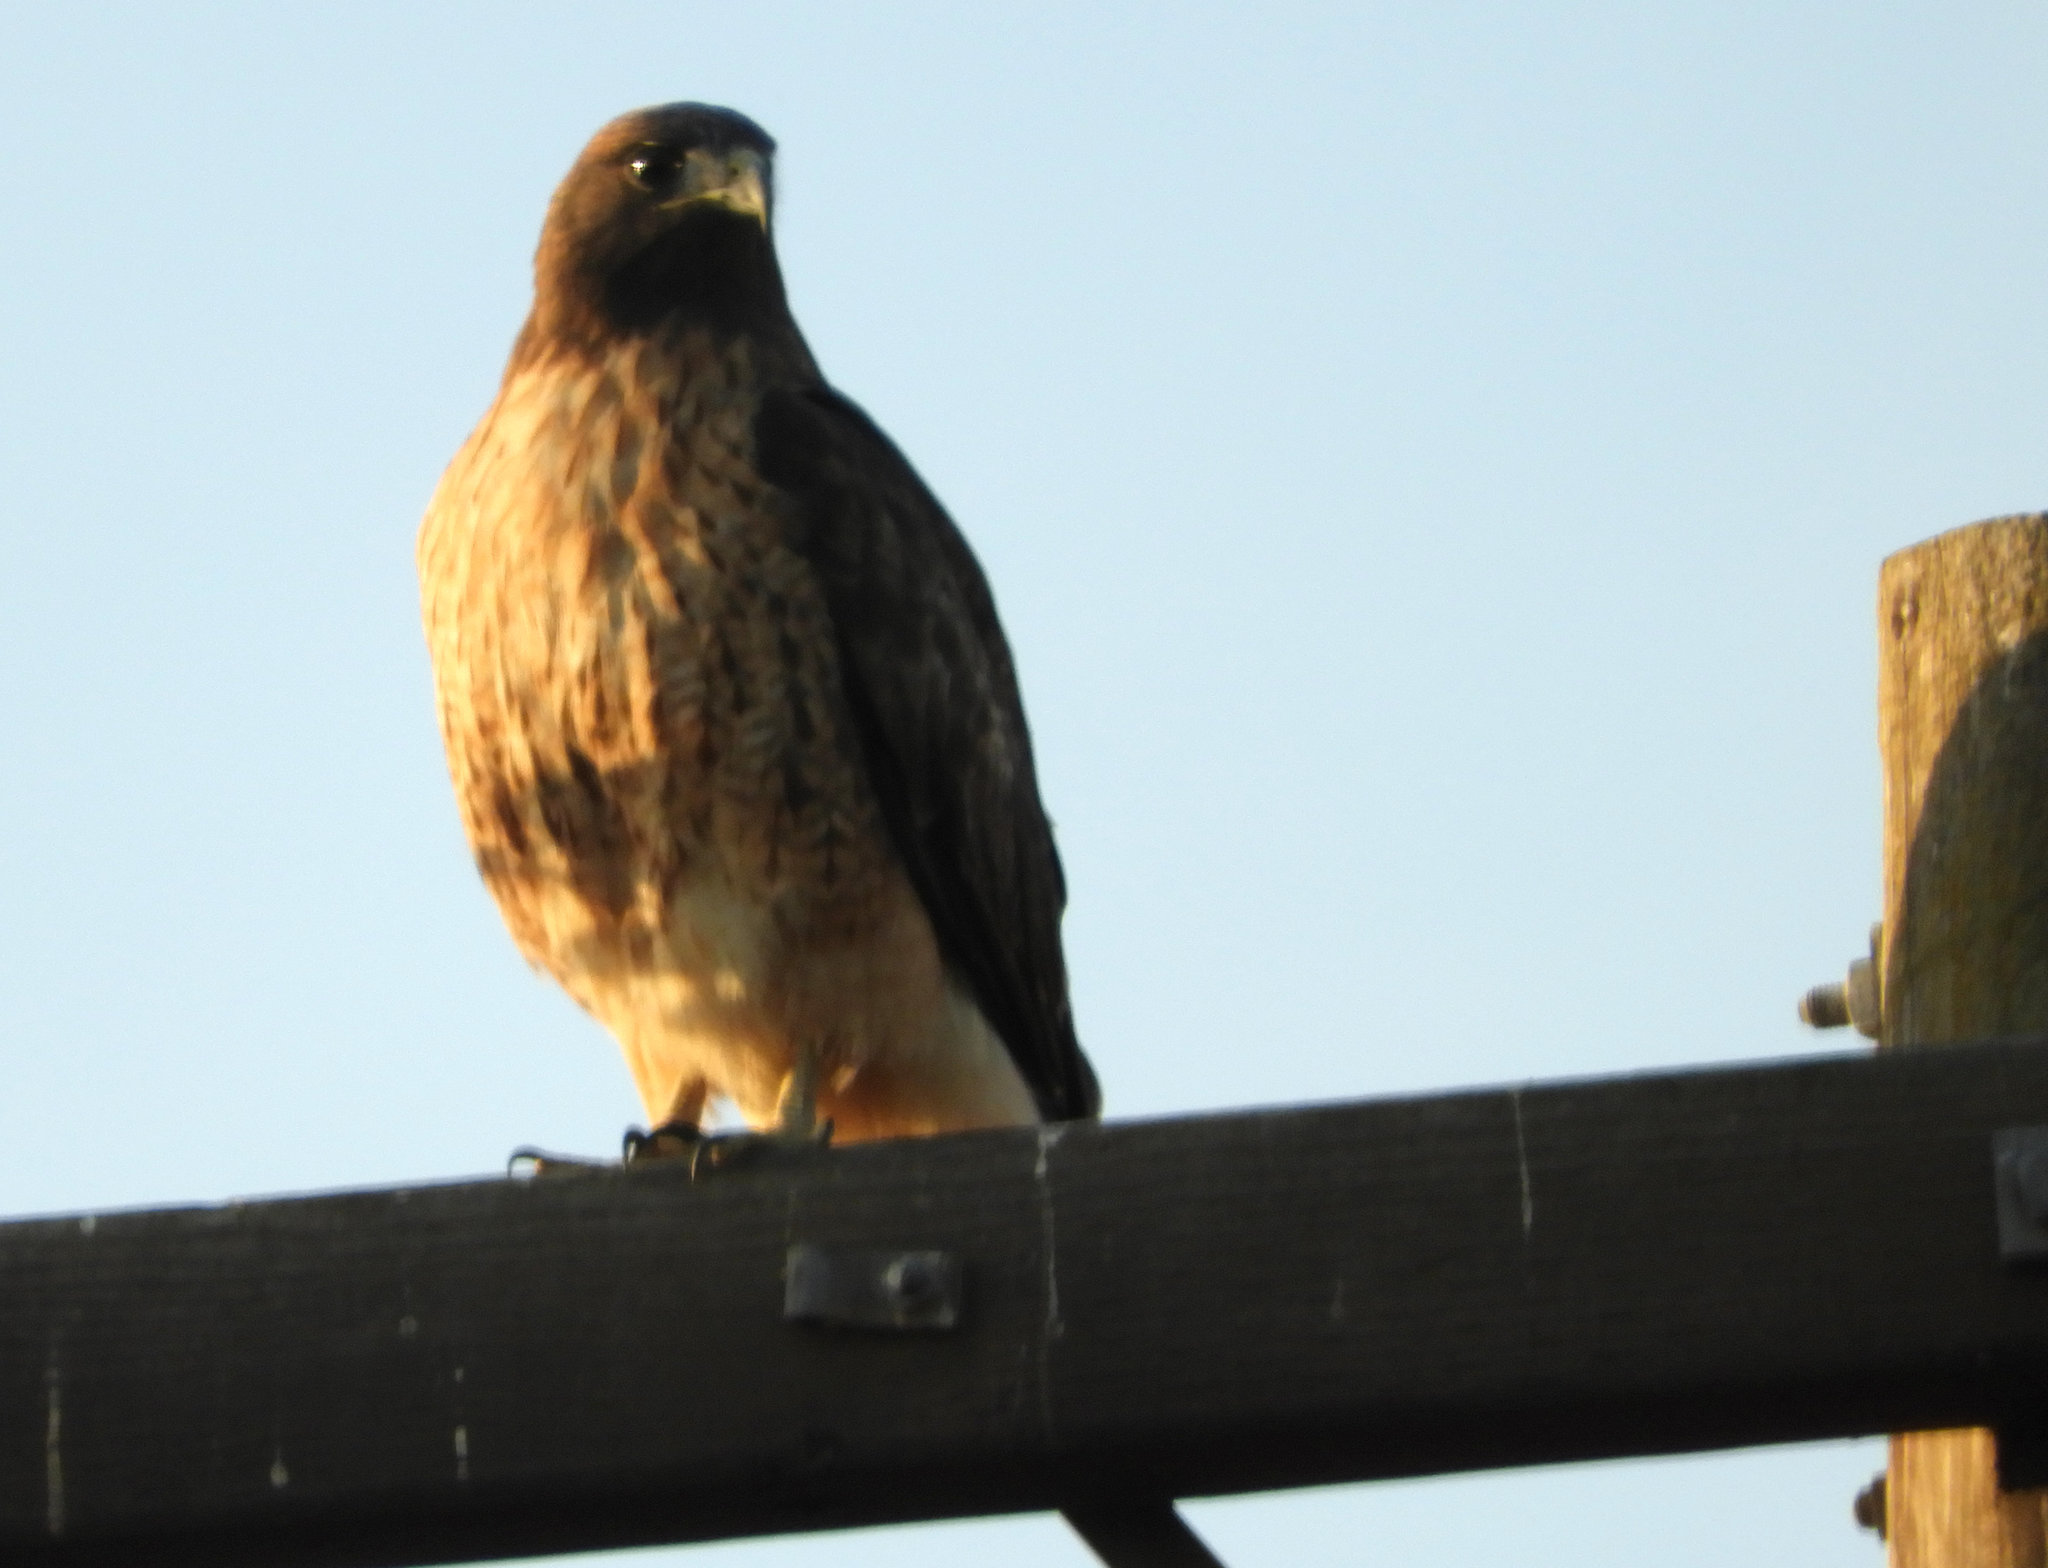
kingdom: Animalia
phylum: Chordata
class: Aves
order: Accipitriformes
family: Accipitridae
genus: Buteo
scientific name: Buteo jamaicensis
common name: Red-tailed hawk
